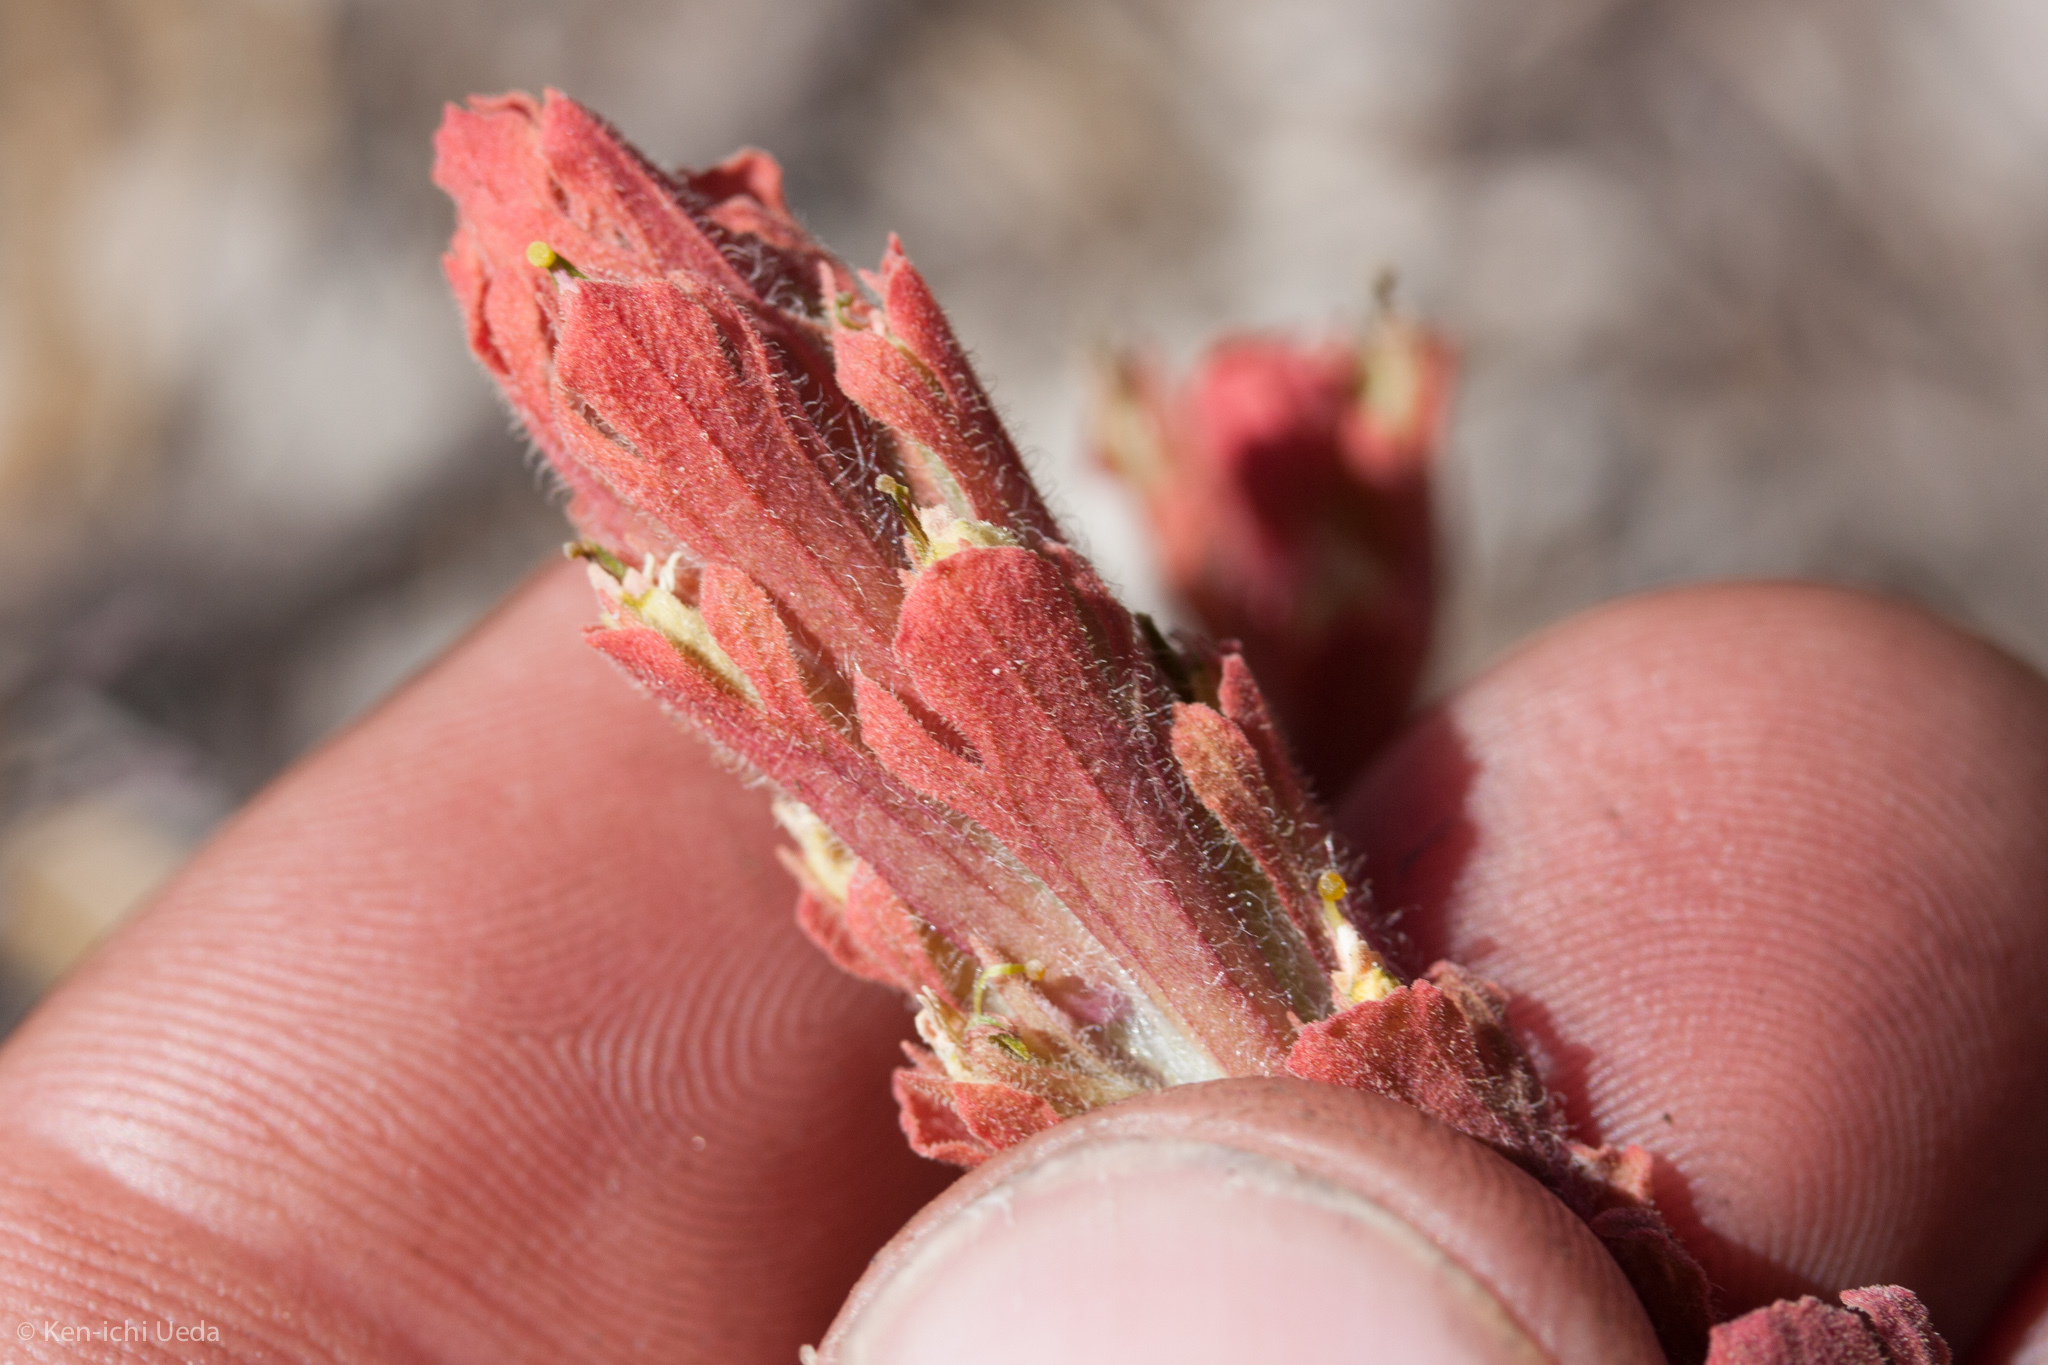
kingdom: Plantae
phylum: Tracheophyta
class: Magnoliopsida
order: Lamiales
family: Orobanchaceae
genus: Castilleja
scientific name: Castilleja arachnoidea
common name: Cobwebby indian paintbrush
